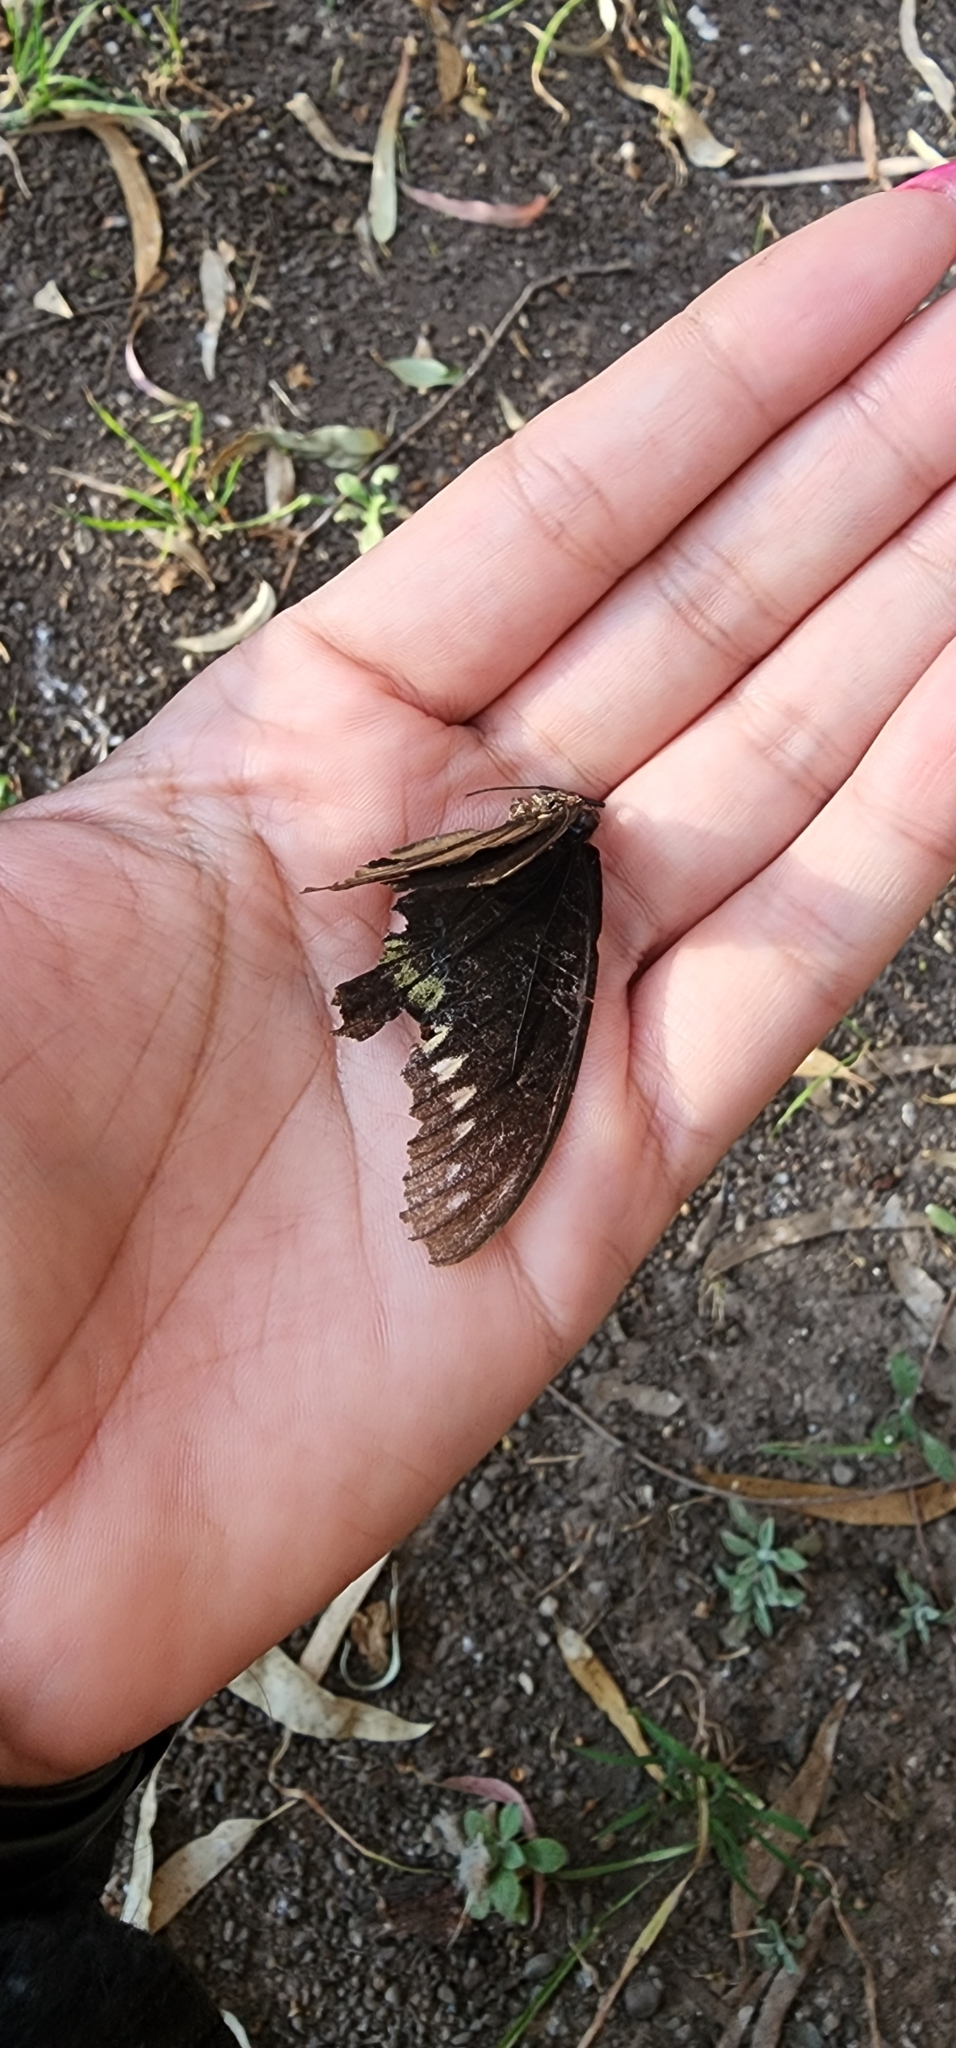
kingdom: Animalia
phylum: Arthropoda
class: Insecta
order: Lepidoptera
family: Papilionidae
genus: Battus
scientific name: Battus polydamas
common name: Polydamas swallowtail
